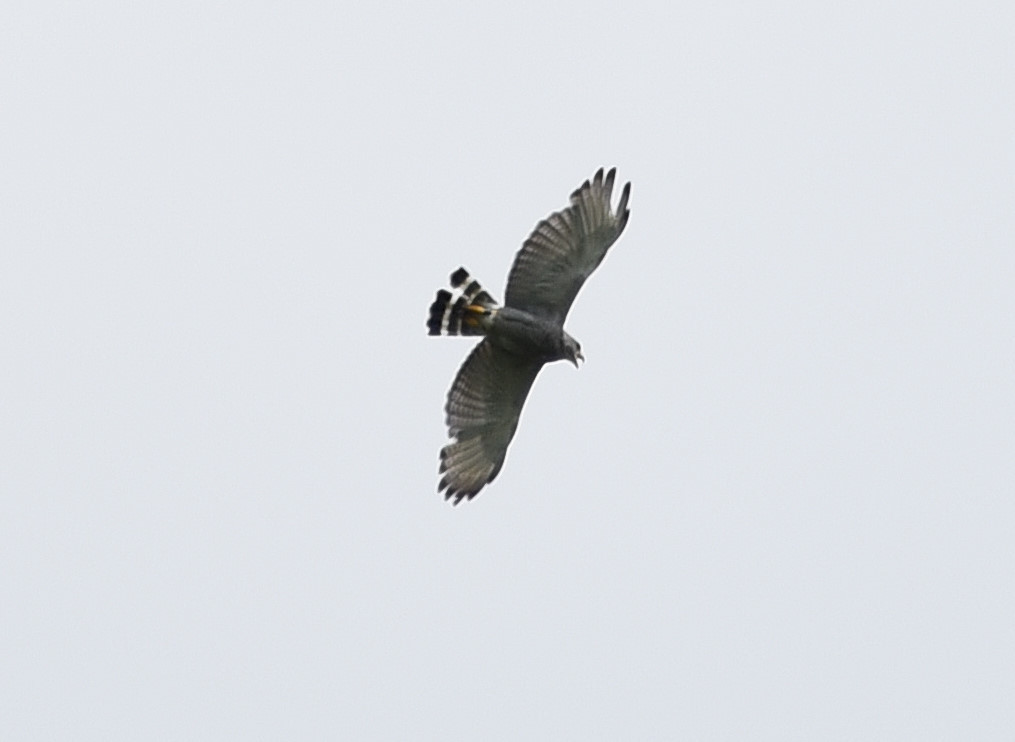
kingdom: Animalia
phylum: Chordata
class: Aves
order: Accipitriformes
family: Accipitridae
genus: Buteo
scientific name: Buteo nitidus
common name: Grey-lined hawk
